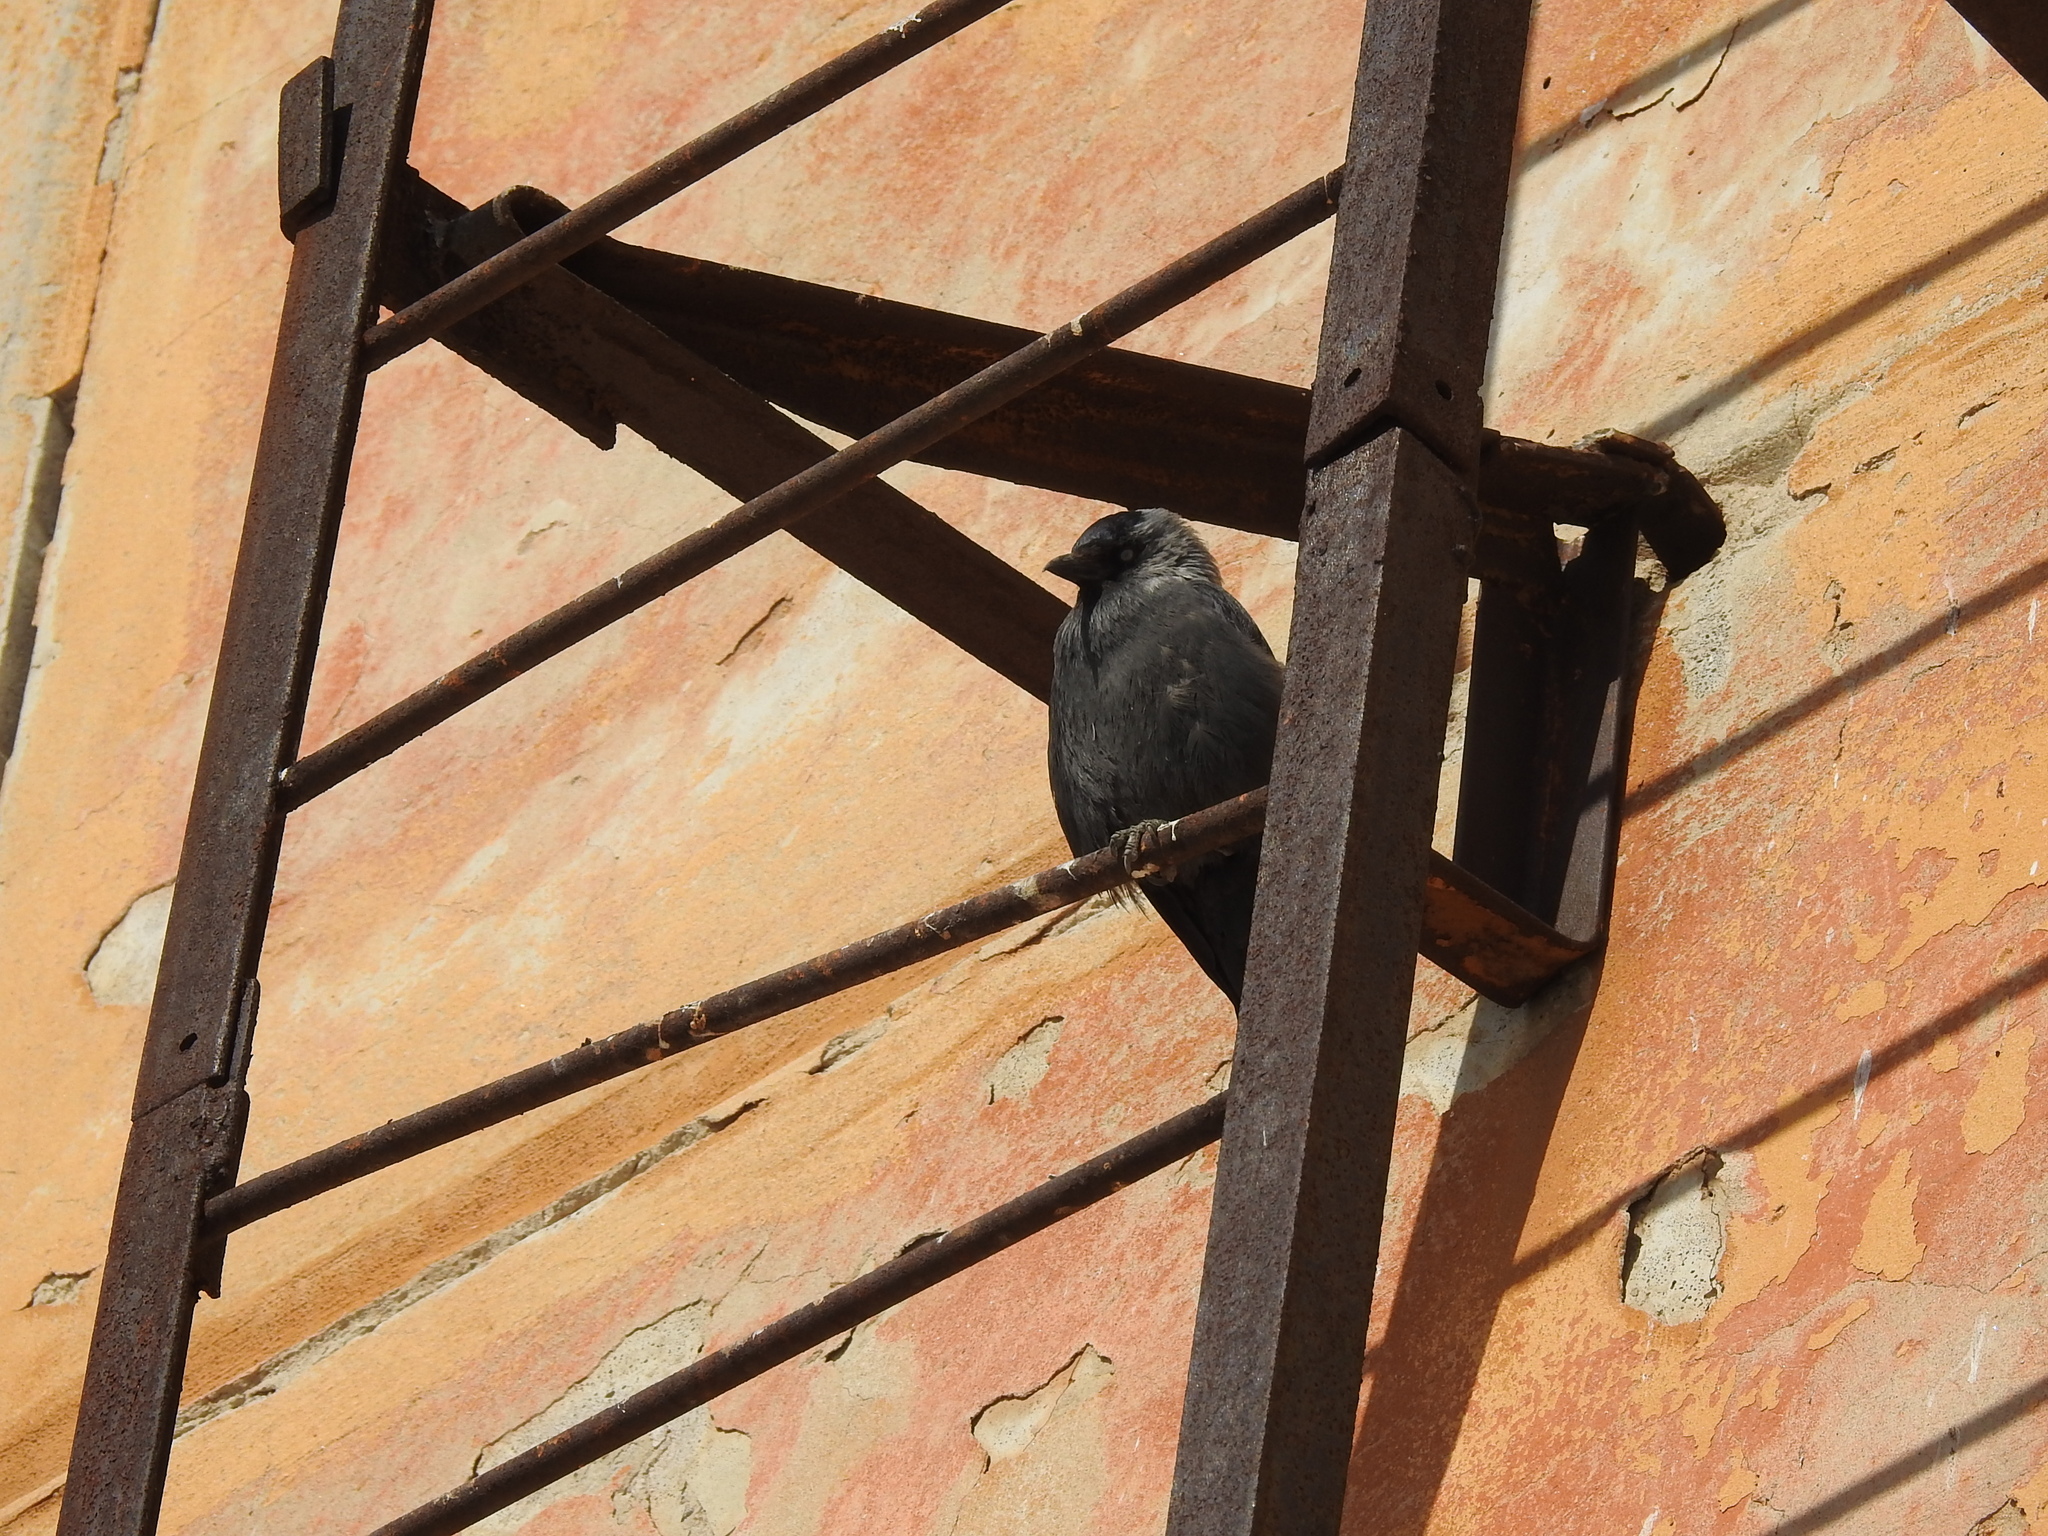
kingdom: Animalia
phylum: Chordata
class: Aves
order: Passeriformes
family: Corvidae
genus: Coloeus
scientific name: Coloeus monedula
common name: Western jackdaw
